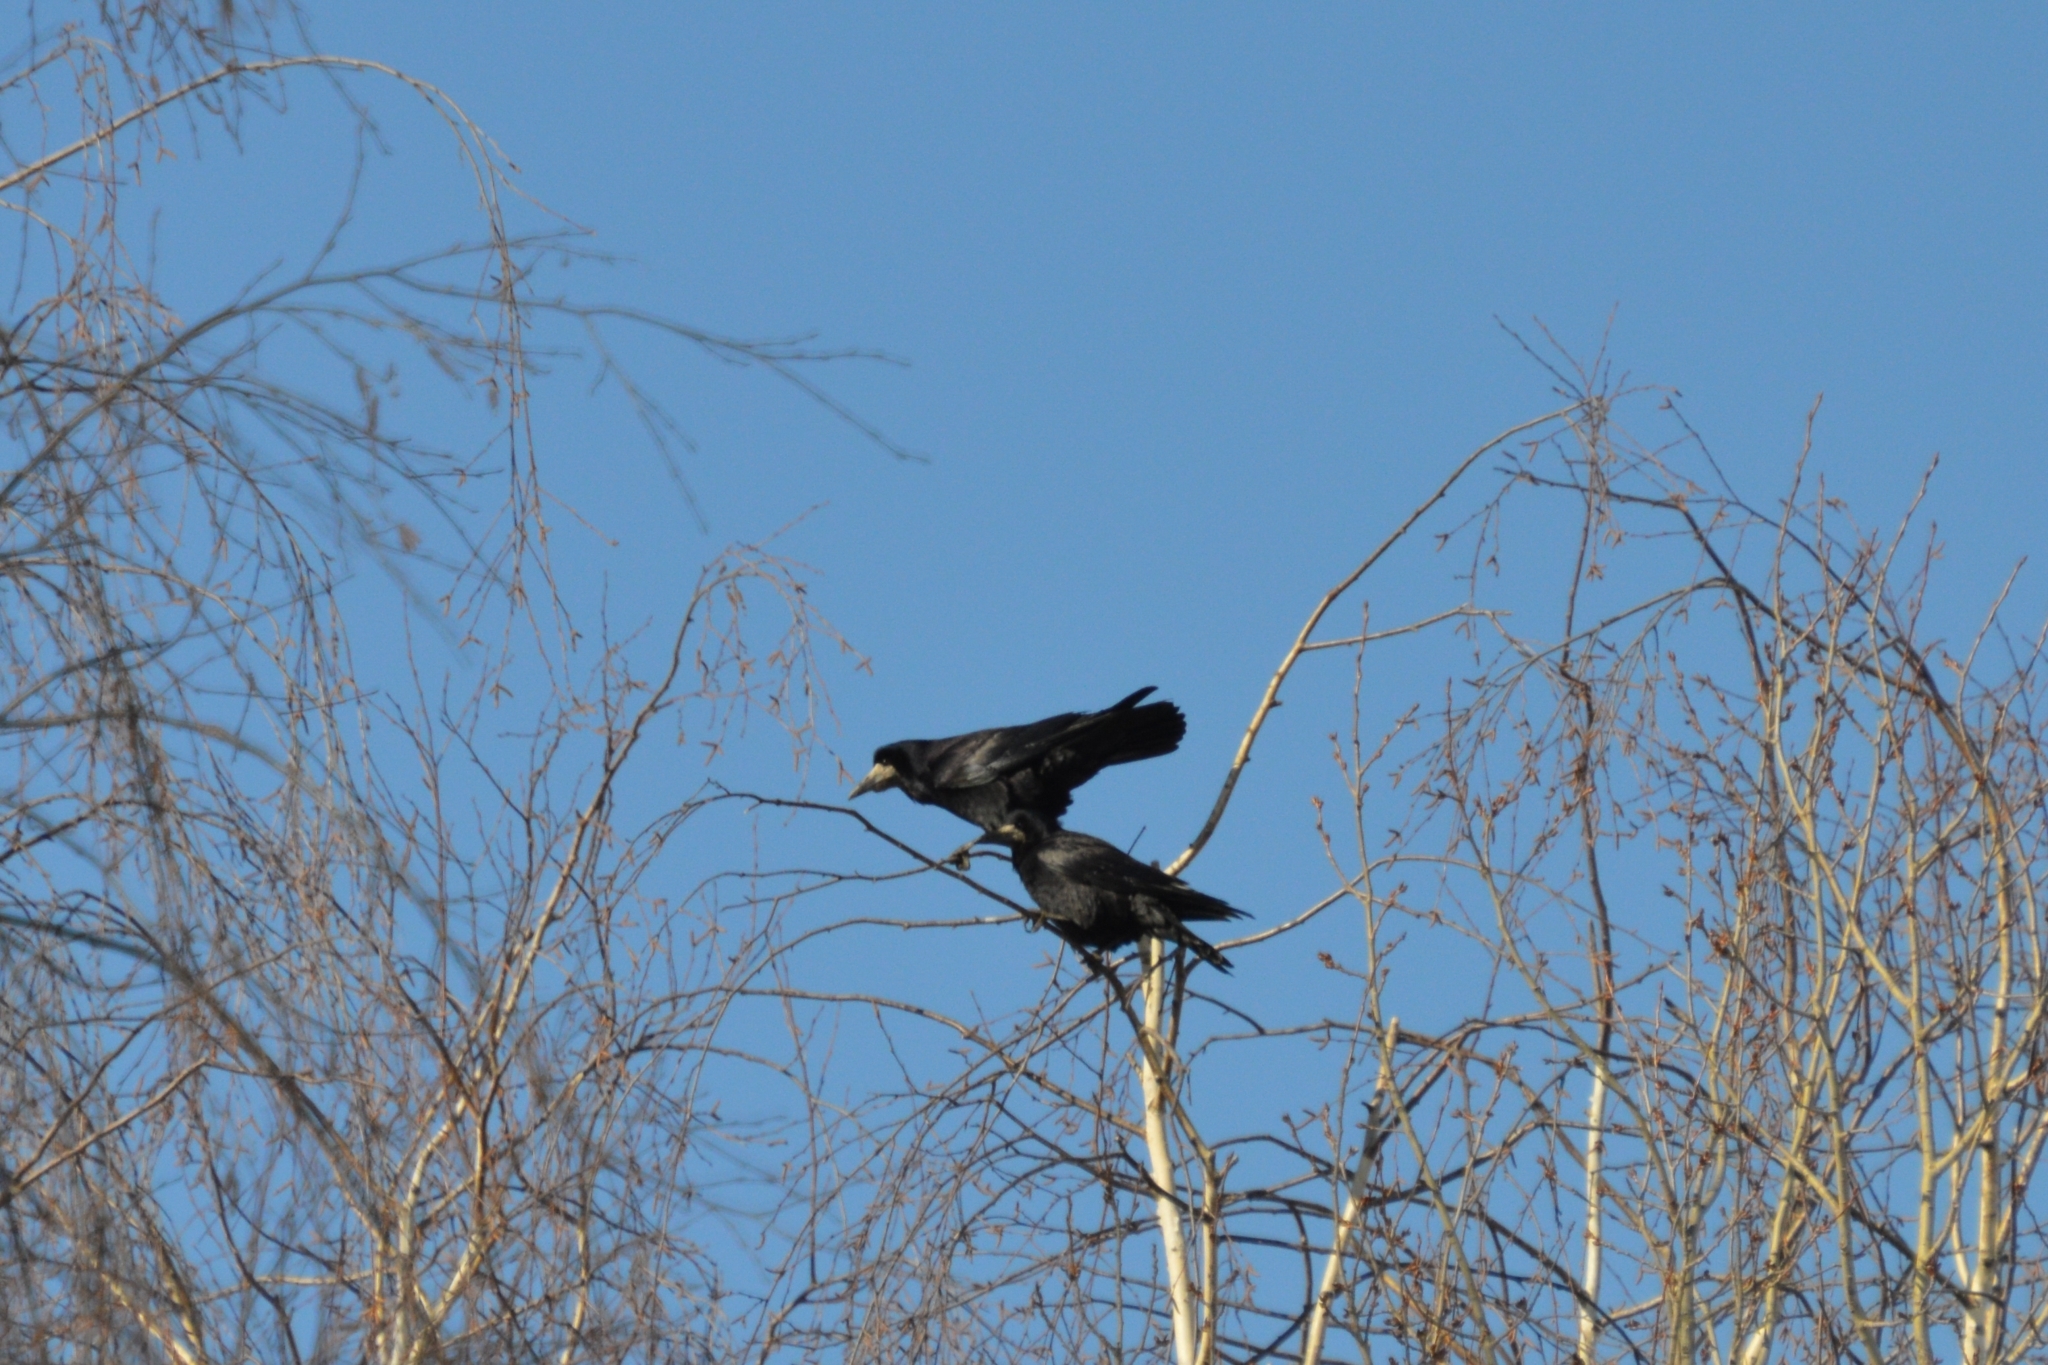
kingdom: Animalia
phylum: Chordata
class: Aves
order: Passeriformes
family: Corvidae
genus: Corvus
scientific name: Corvus frugilegus
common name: Rook
